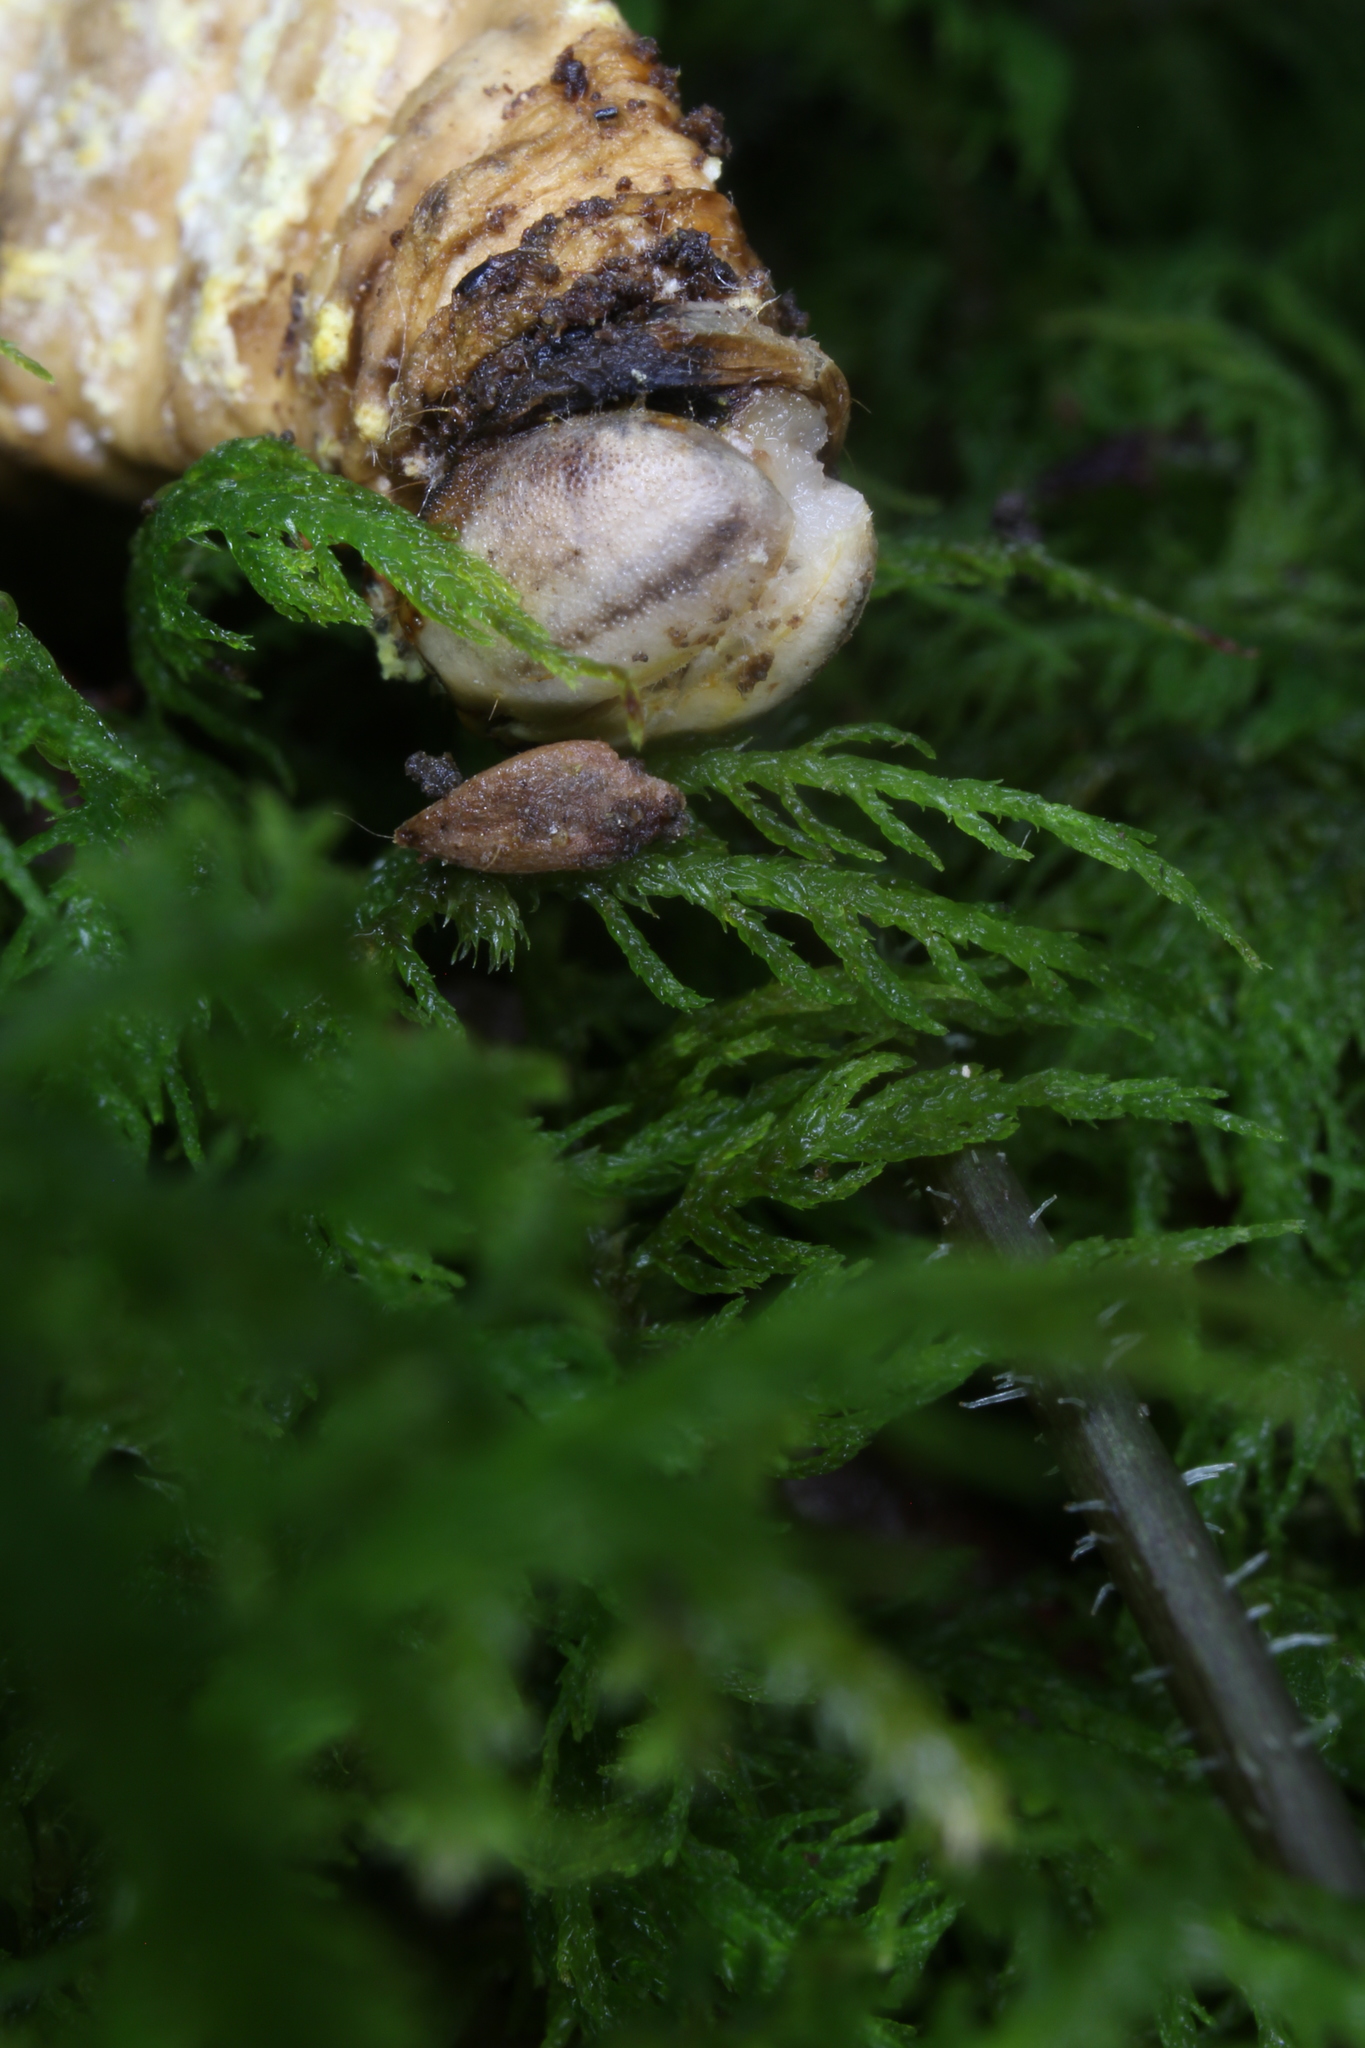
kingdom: Fungi
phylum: Ascomycota
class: Sordariomycetes
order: Hypocreales
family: Cordycipitaceae
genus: Blackwellomyces
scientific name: Blackwellomyces cardinalis
